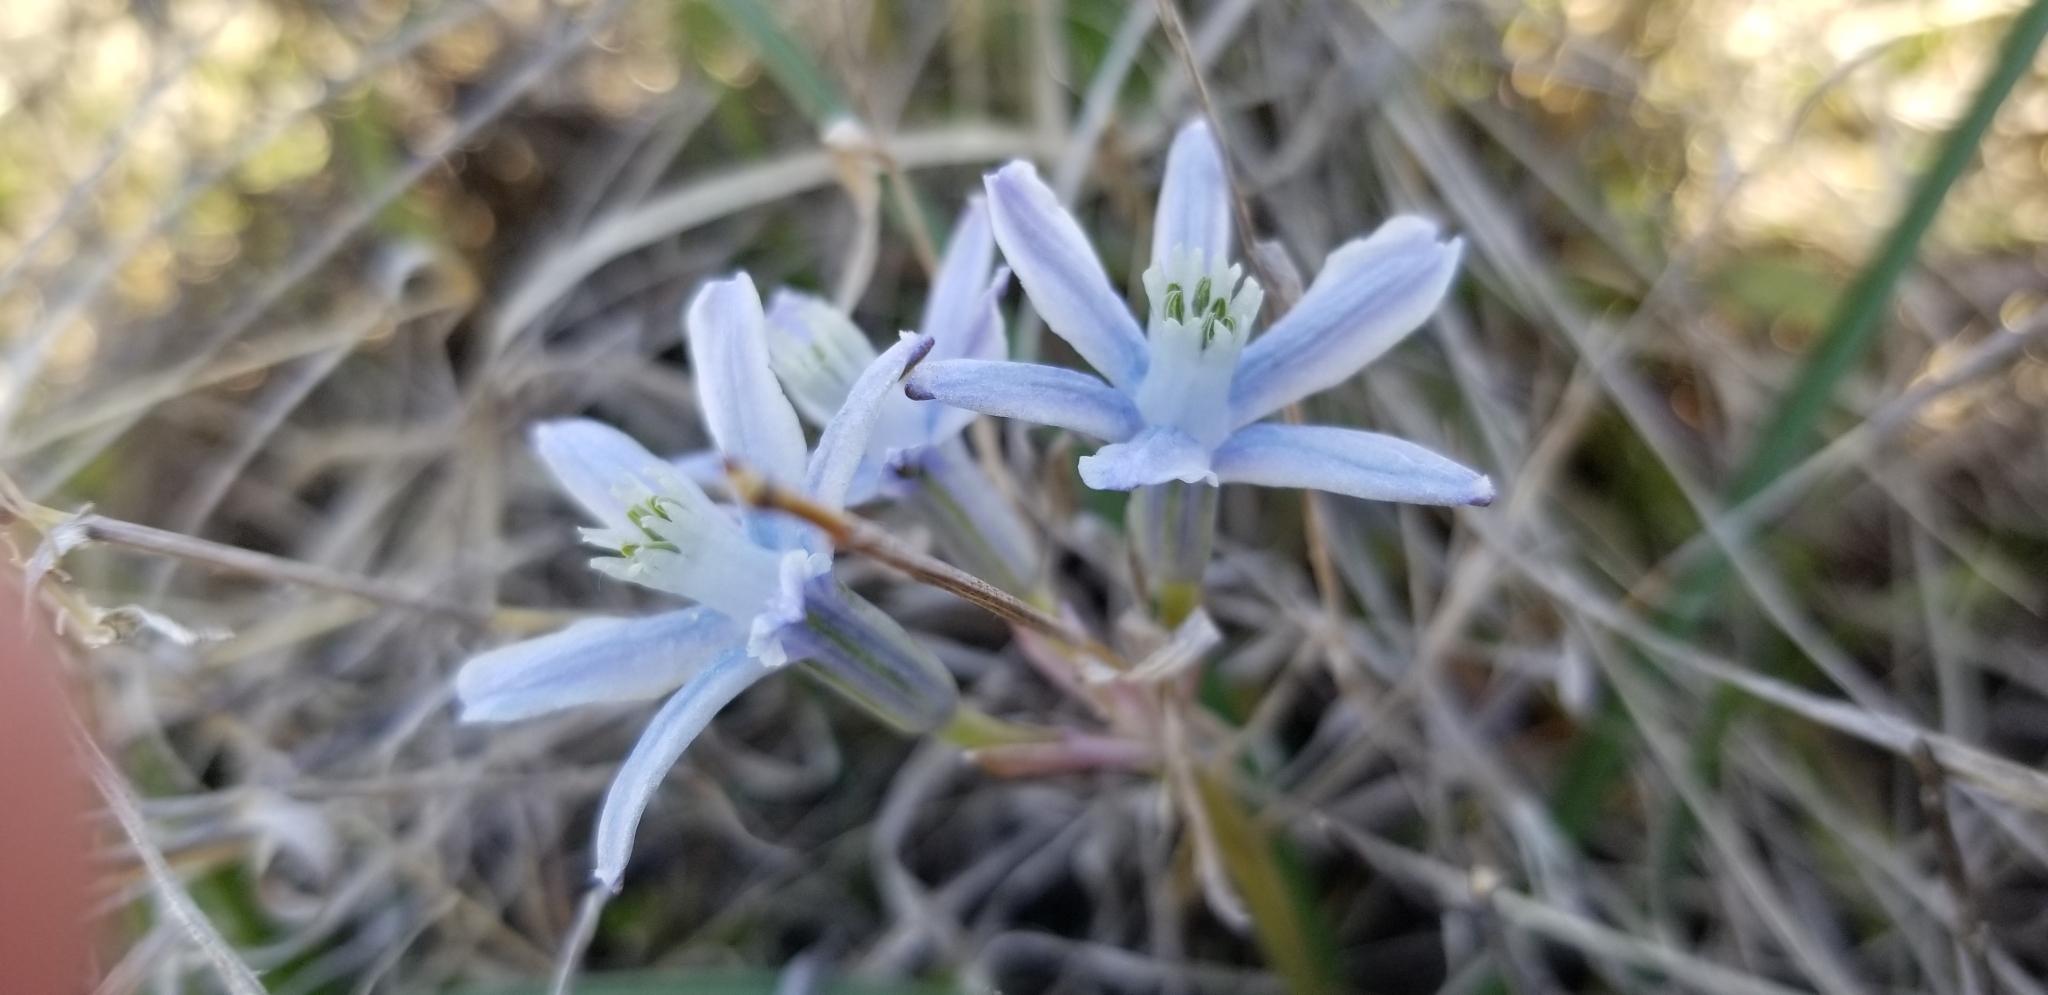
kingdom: Plantae
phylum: Tracheophyta
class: Liliopsida
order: Asparagales
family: Asparagaceae
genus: Androstephium
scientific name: Androstephium coeruleum
